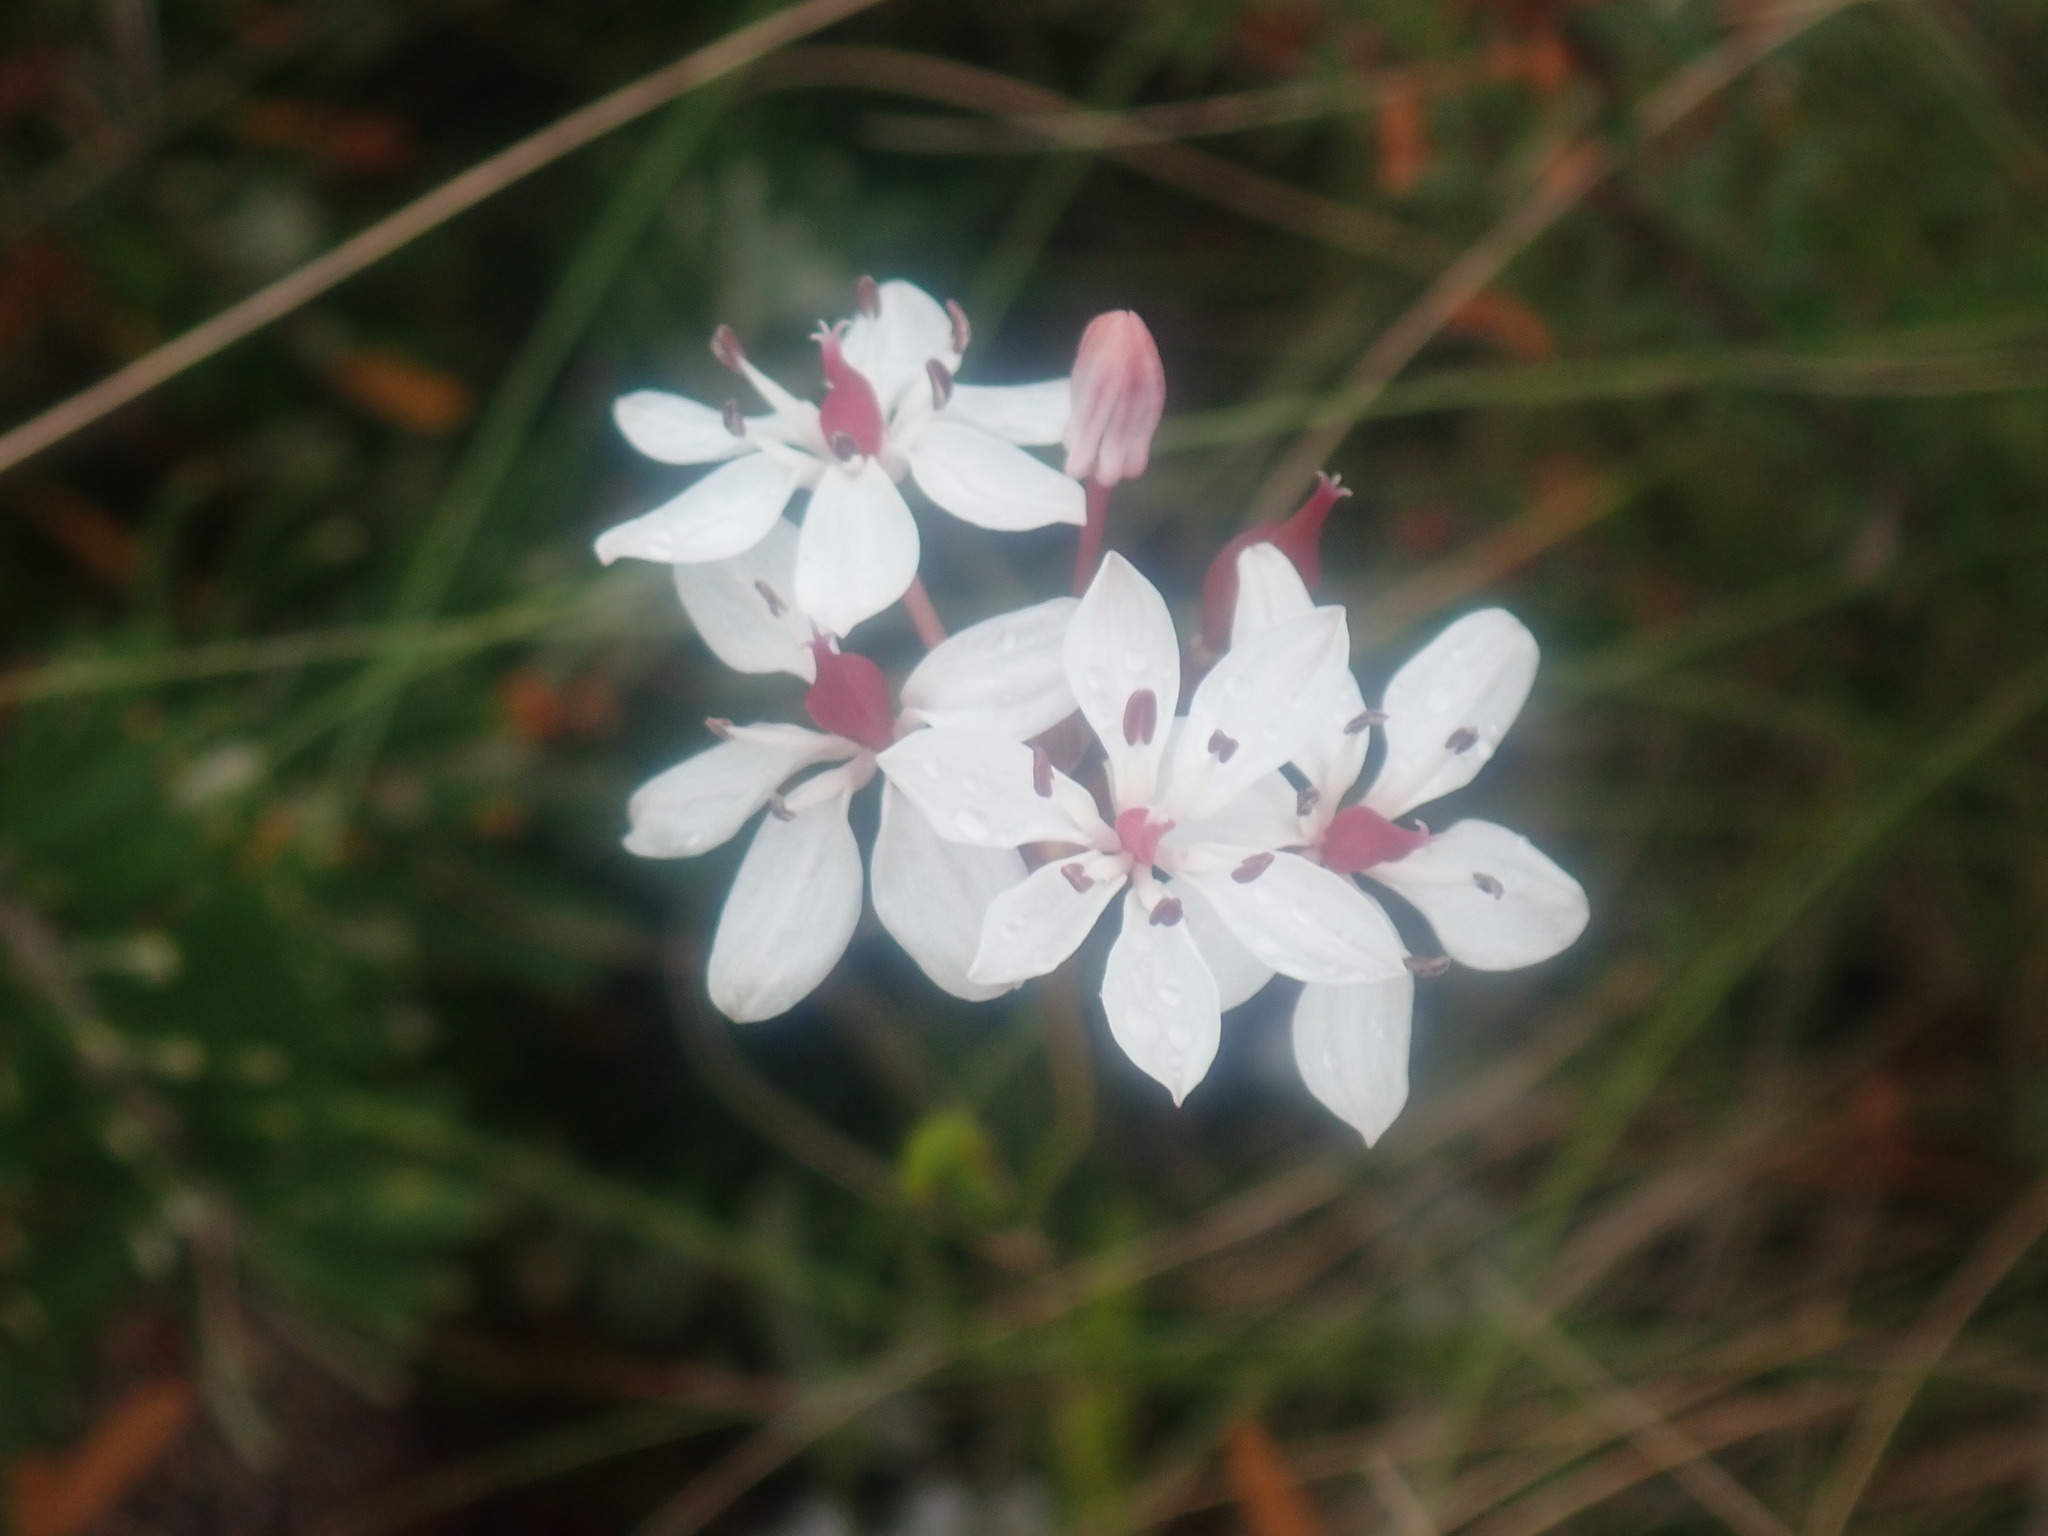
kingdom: Plantae
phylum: Tracheophyta
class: Liliopsida
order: Liliales
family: Colchicaceae
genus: Burchardia
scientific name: Burchardia umbellata
